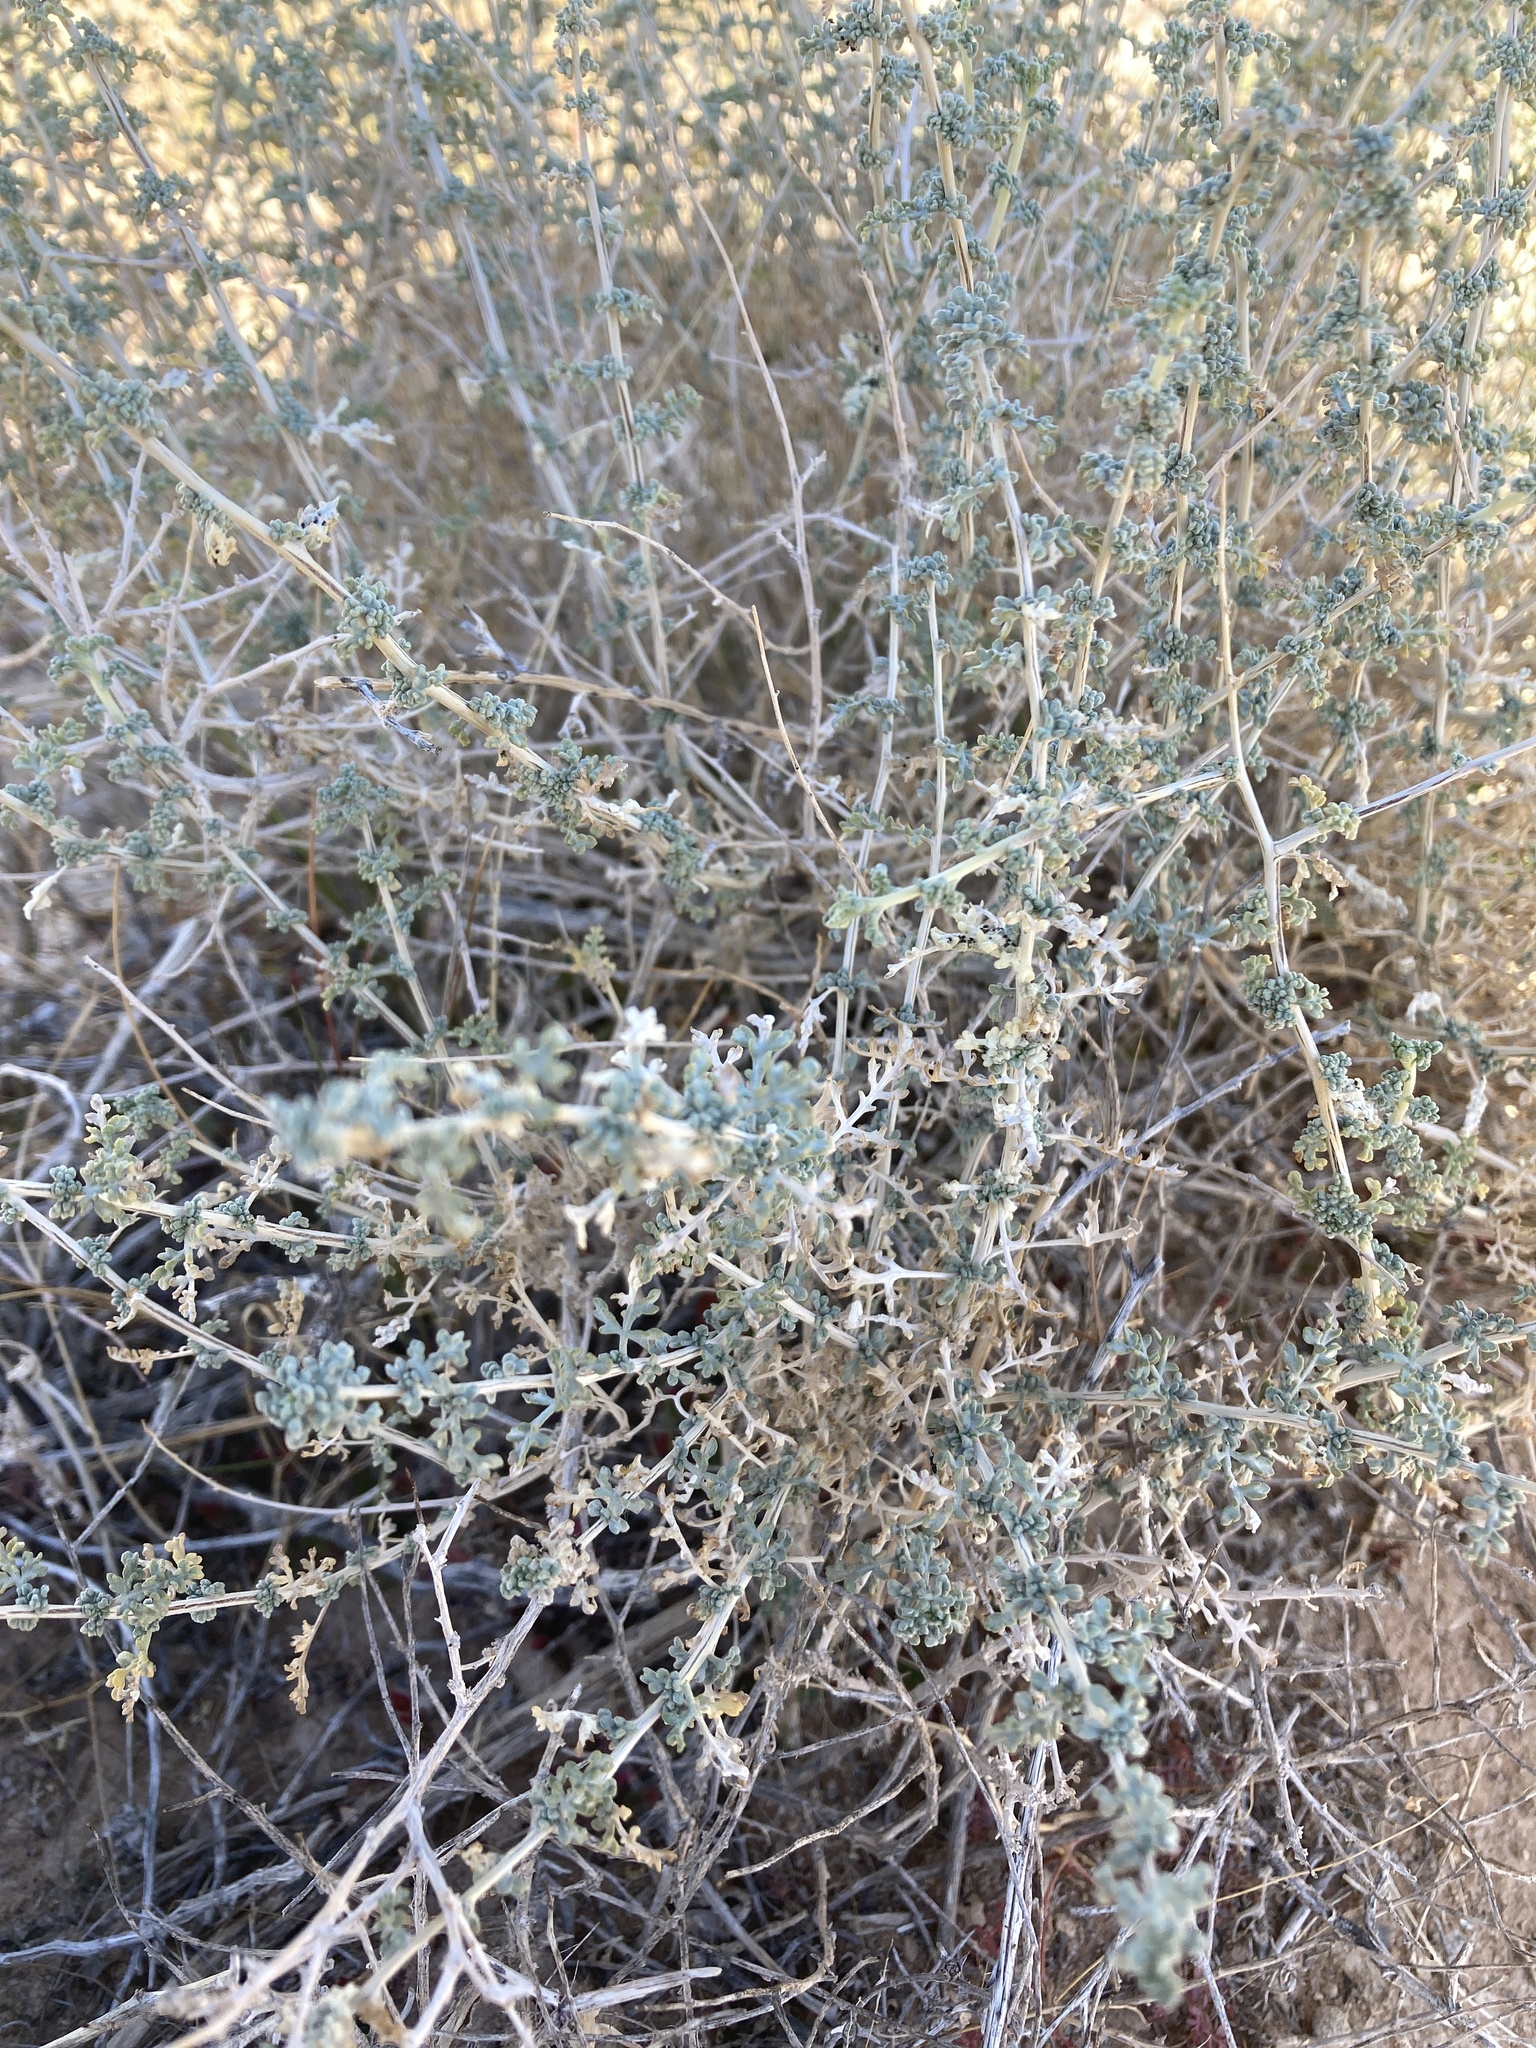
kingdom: Plantae
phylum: Tracheophyta
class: Magnoliopsida
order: Asterales
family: Asteraceae
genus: Ambrosia
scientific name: Ambrosia dumosa
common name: Bur-sage
